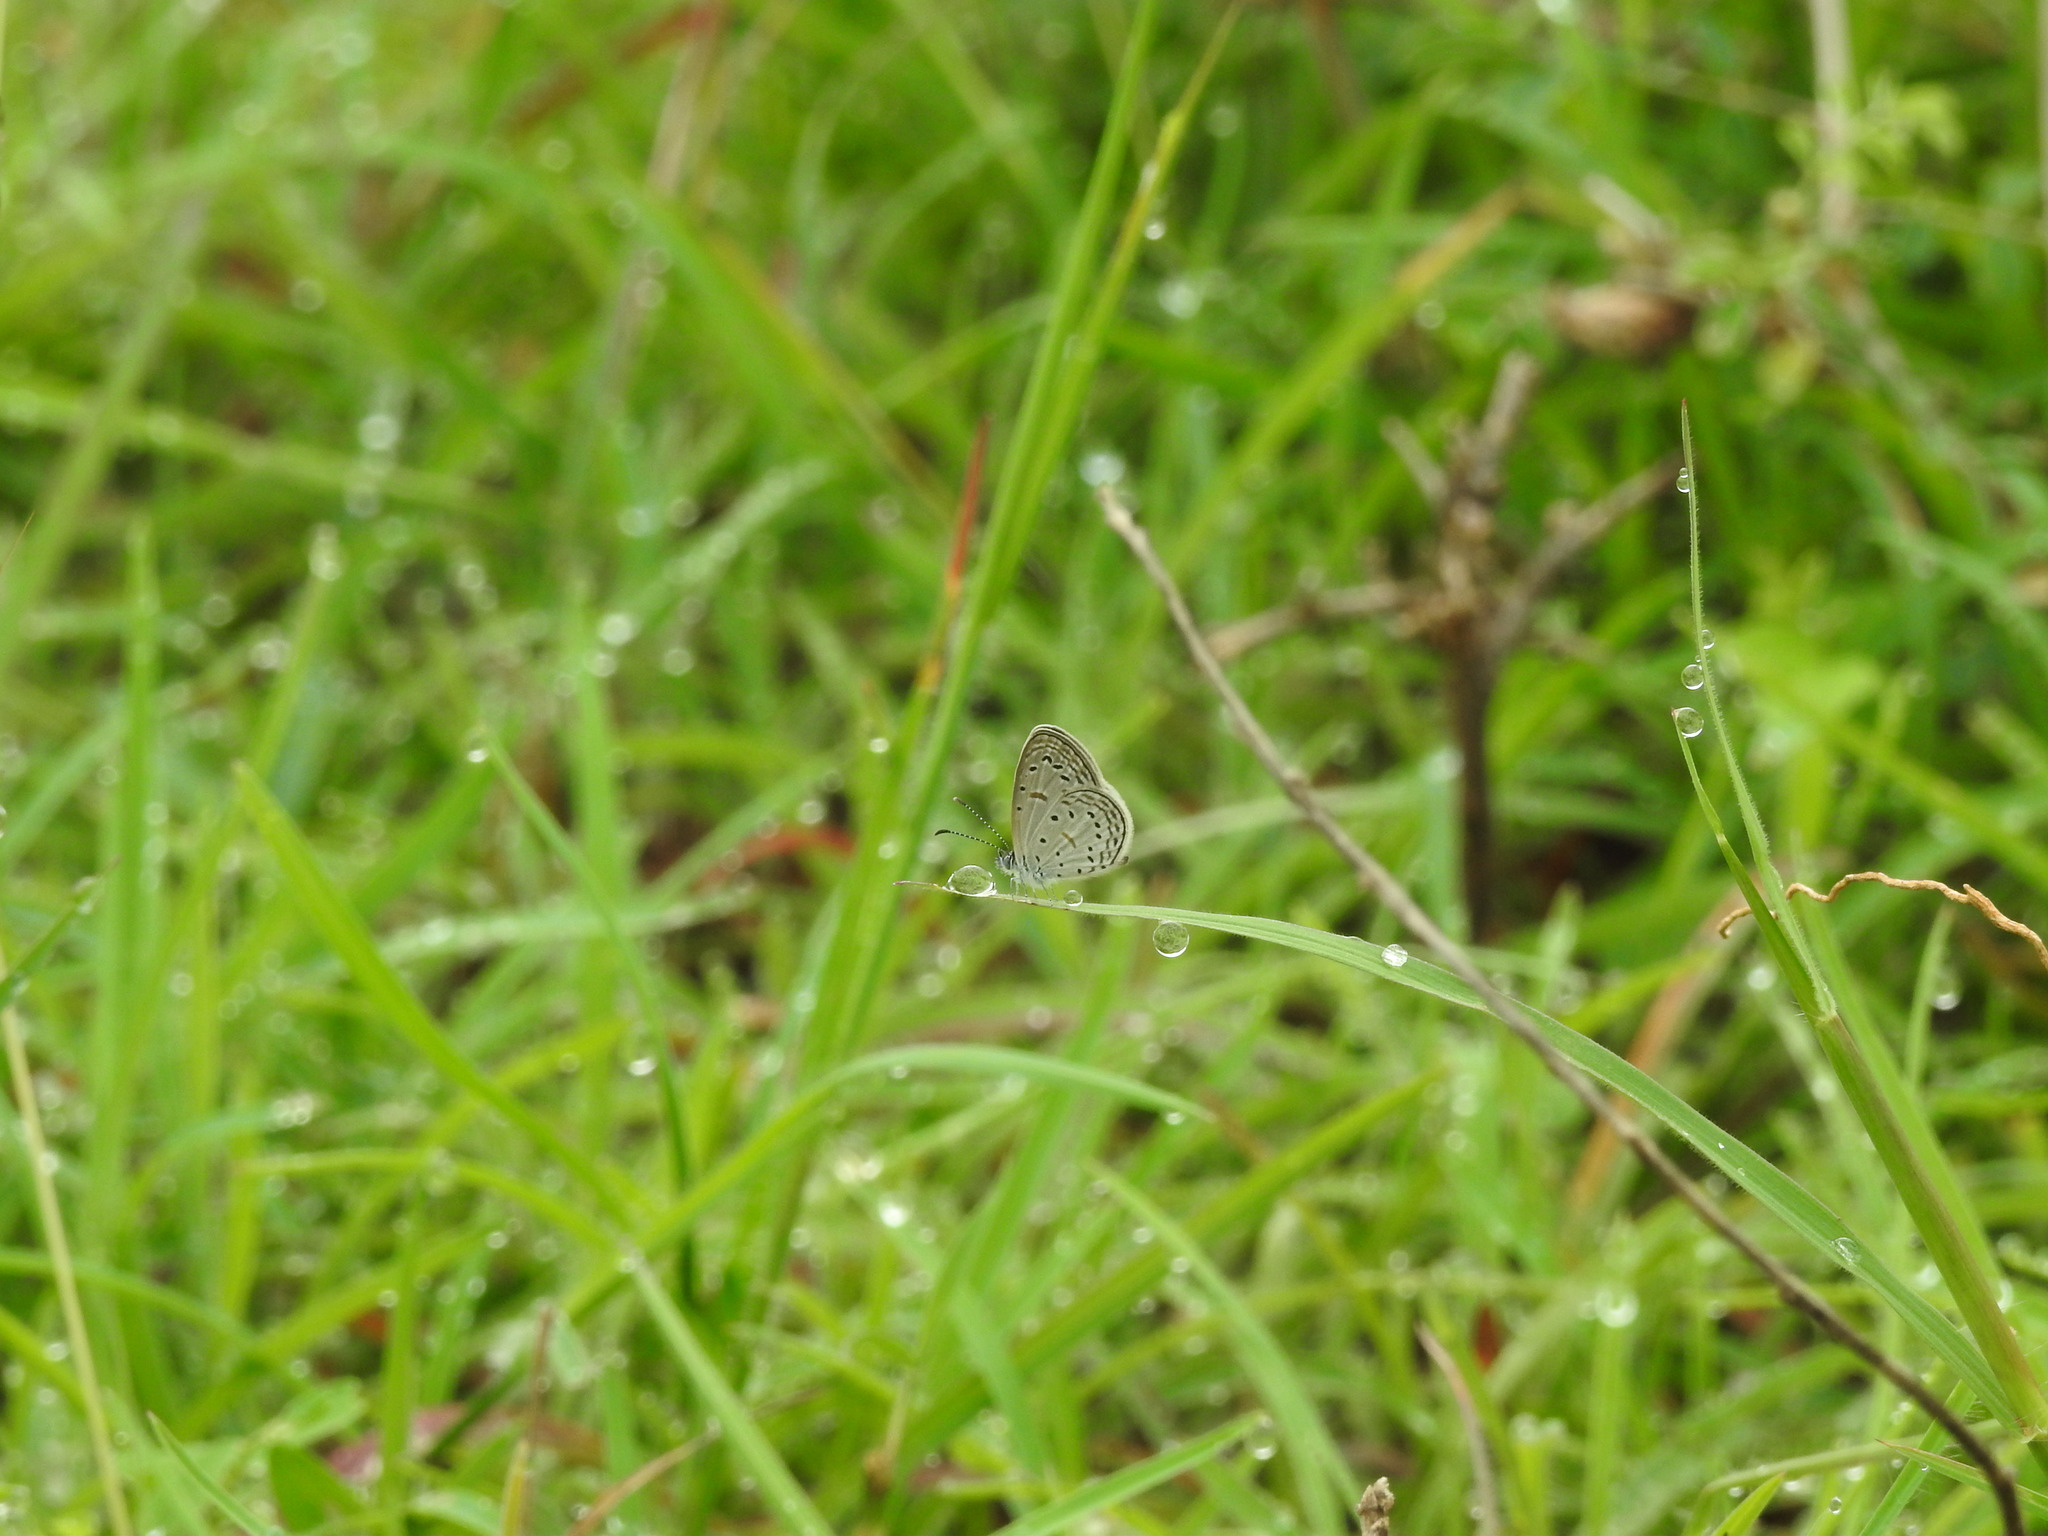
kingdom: Animalia
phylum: Arthropoda
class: Insecta
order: Lepidoptera
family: Lycaenidae
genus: Zizula
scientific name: Zizula hylax
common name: Gaika blue
